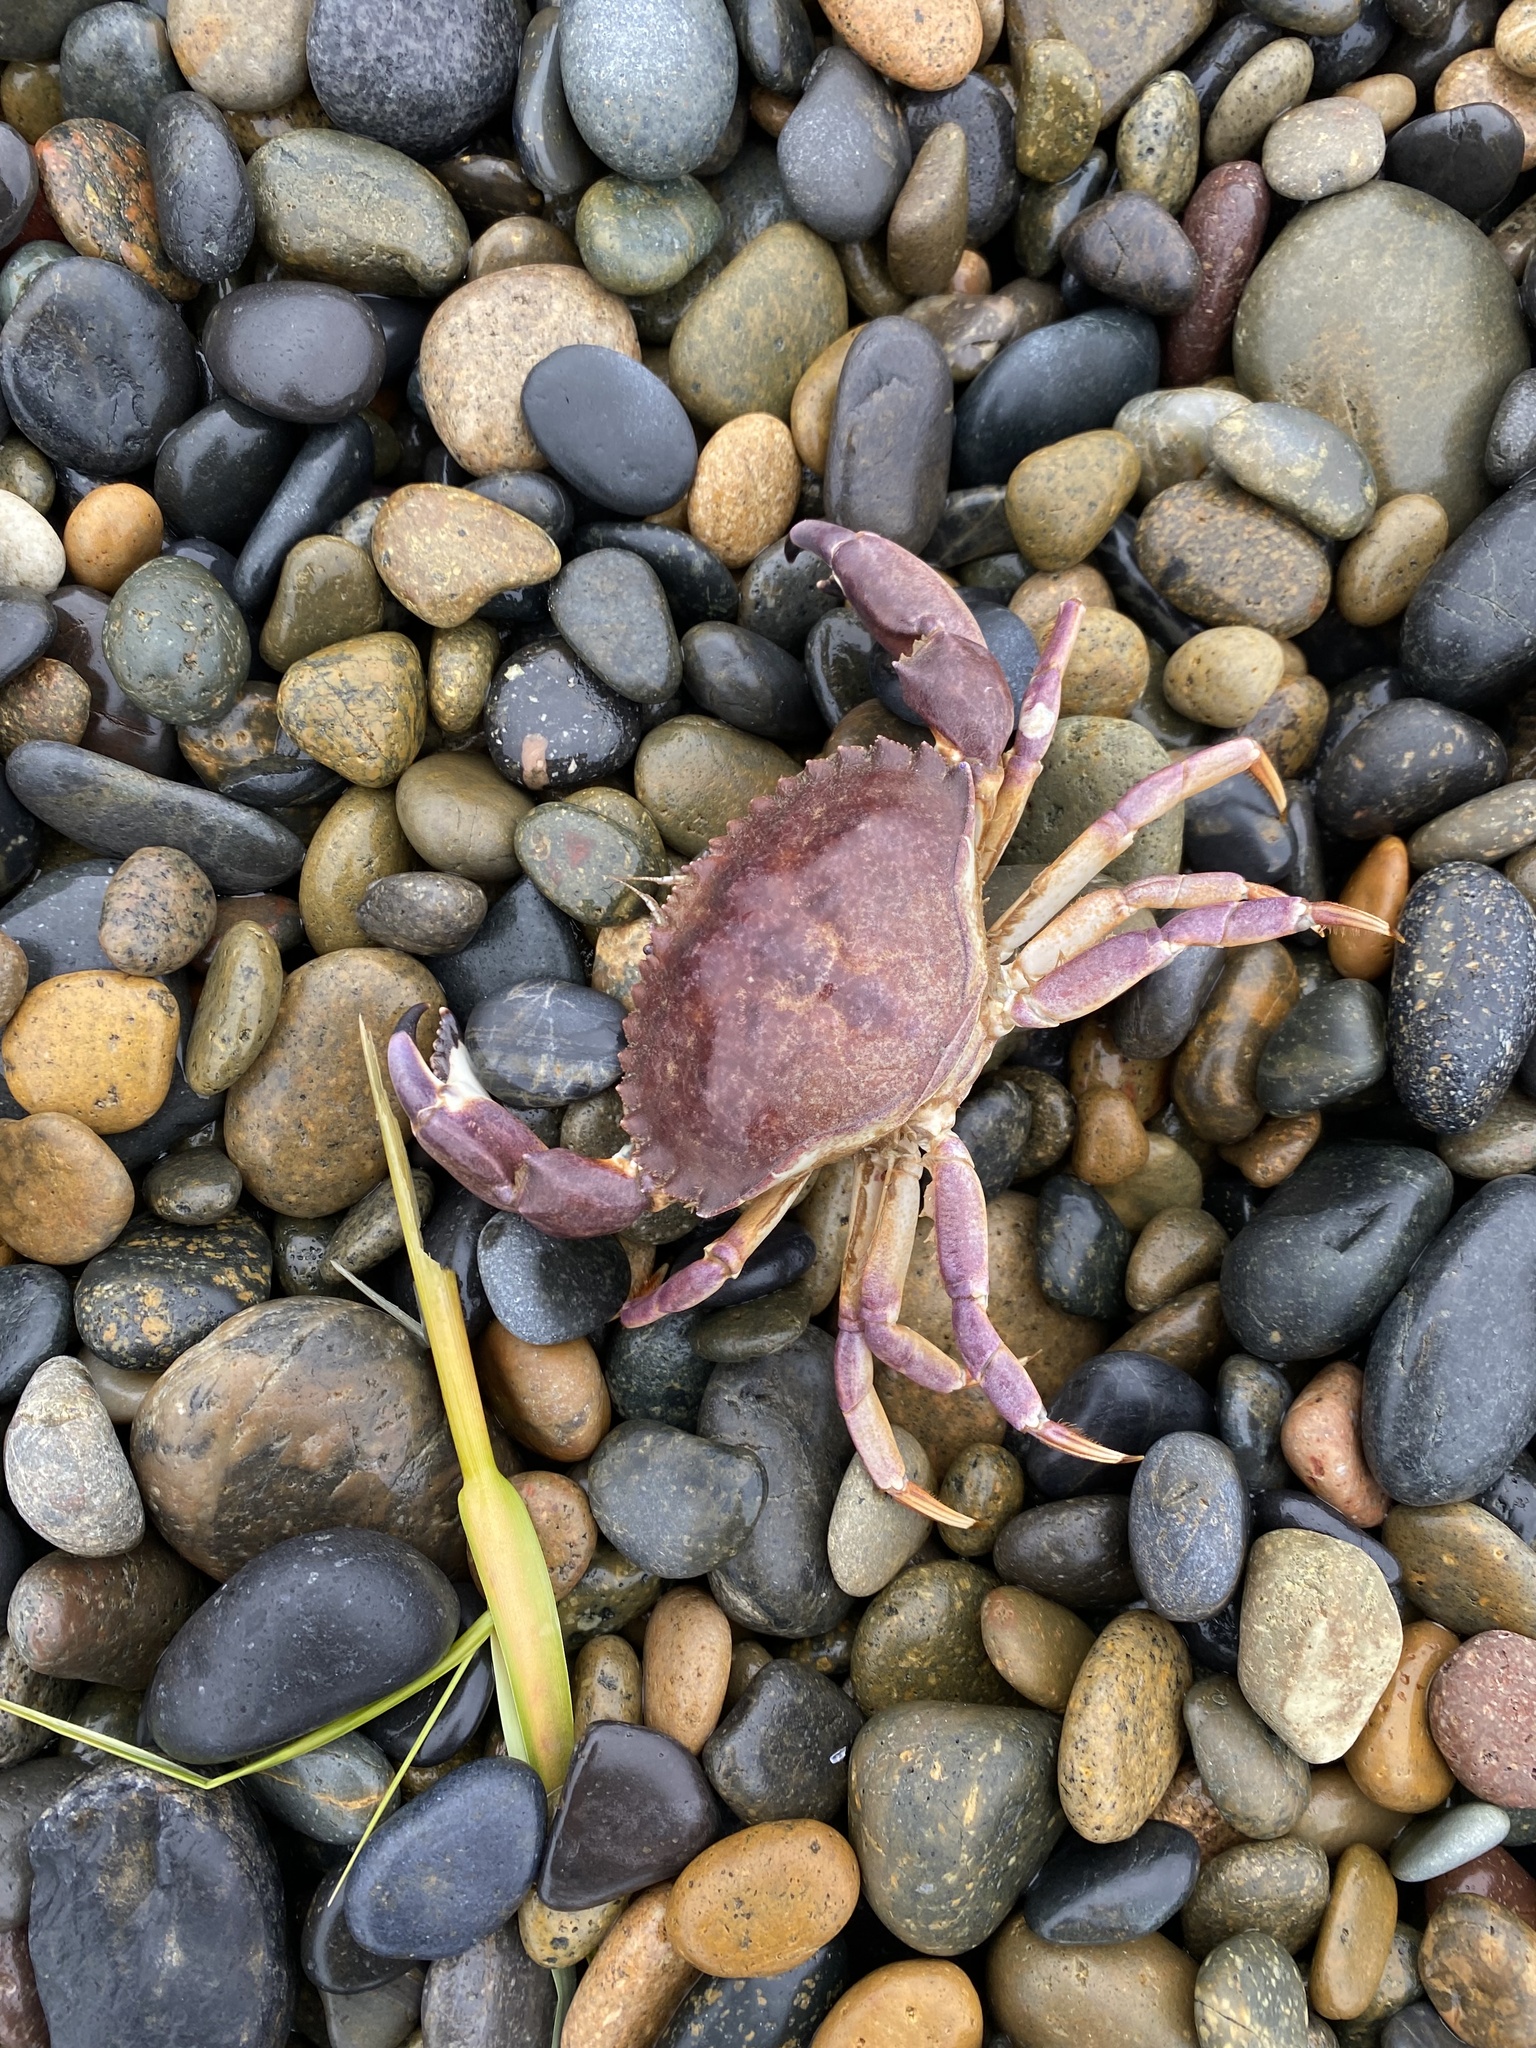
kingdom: Animalia
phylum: Arthropoda
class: Malacostraca
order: Decapoda
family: Cancridae
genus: Metacarcinus
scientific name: Metacarcinus anthonyi
